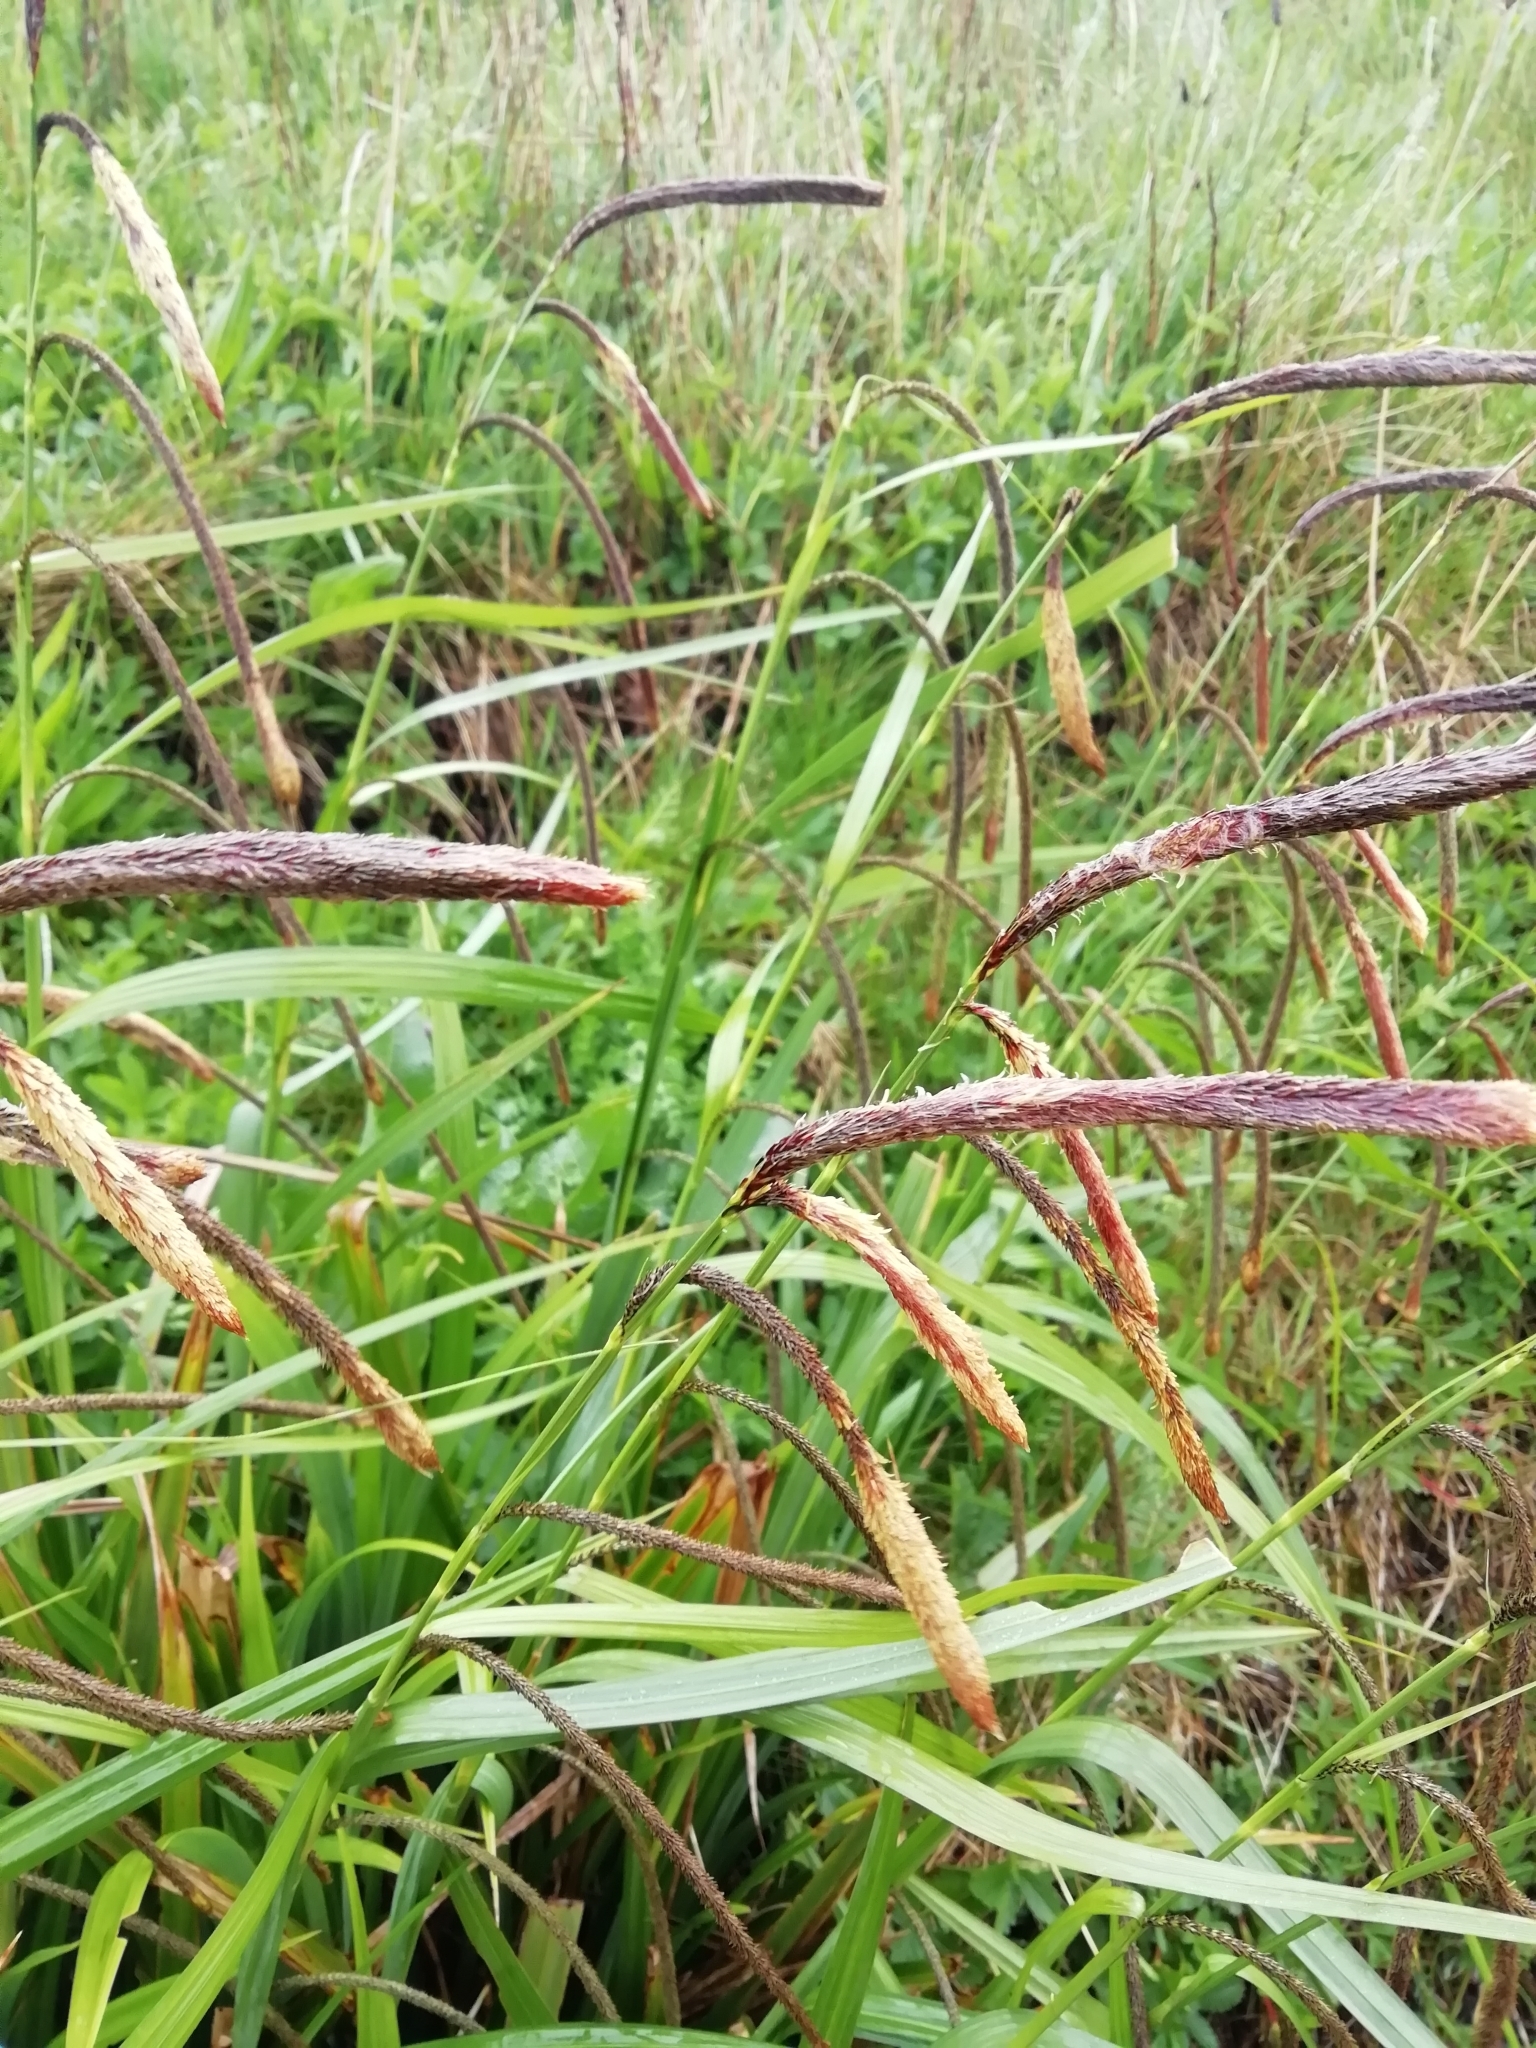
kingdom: Plantae
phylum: Tracheophyta
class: Liliopsida
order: Poales
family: Cyperaceae
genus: Carex
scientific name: Carex pendula
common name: Pendulous sedge
